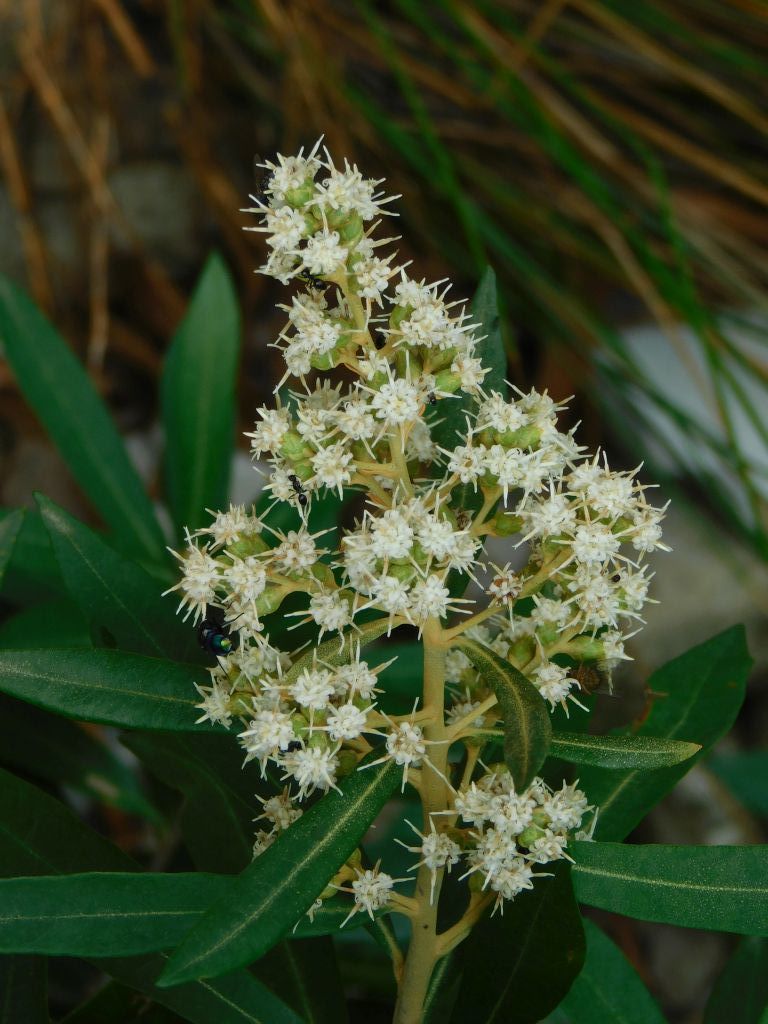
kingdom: Plantae
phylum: Tracheophyta
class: Magnoliopsida
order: Asterales
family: Asteraceae
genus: Brachylaena
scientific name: Brachylaena neriifolia
